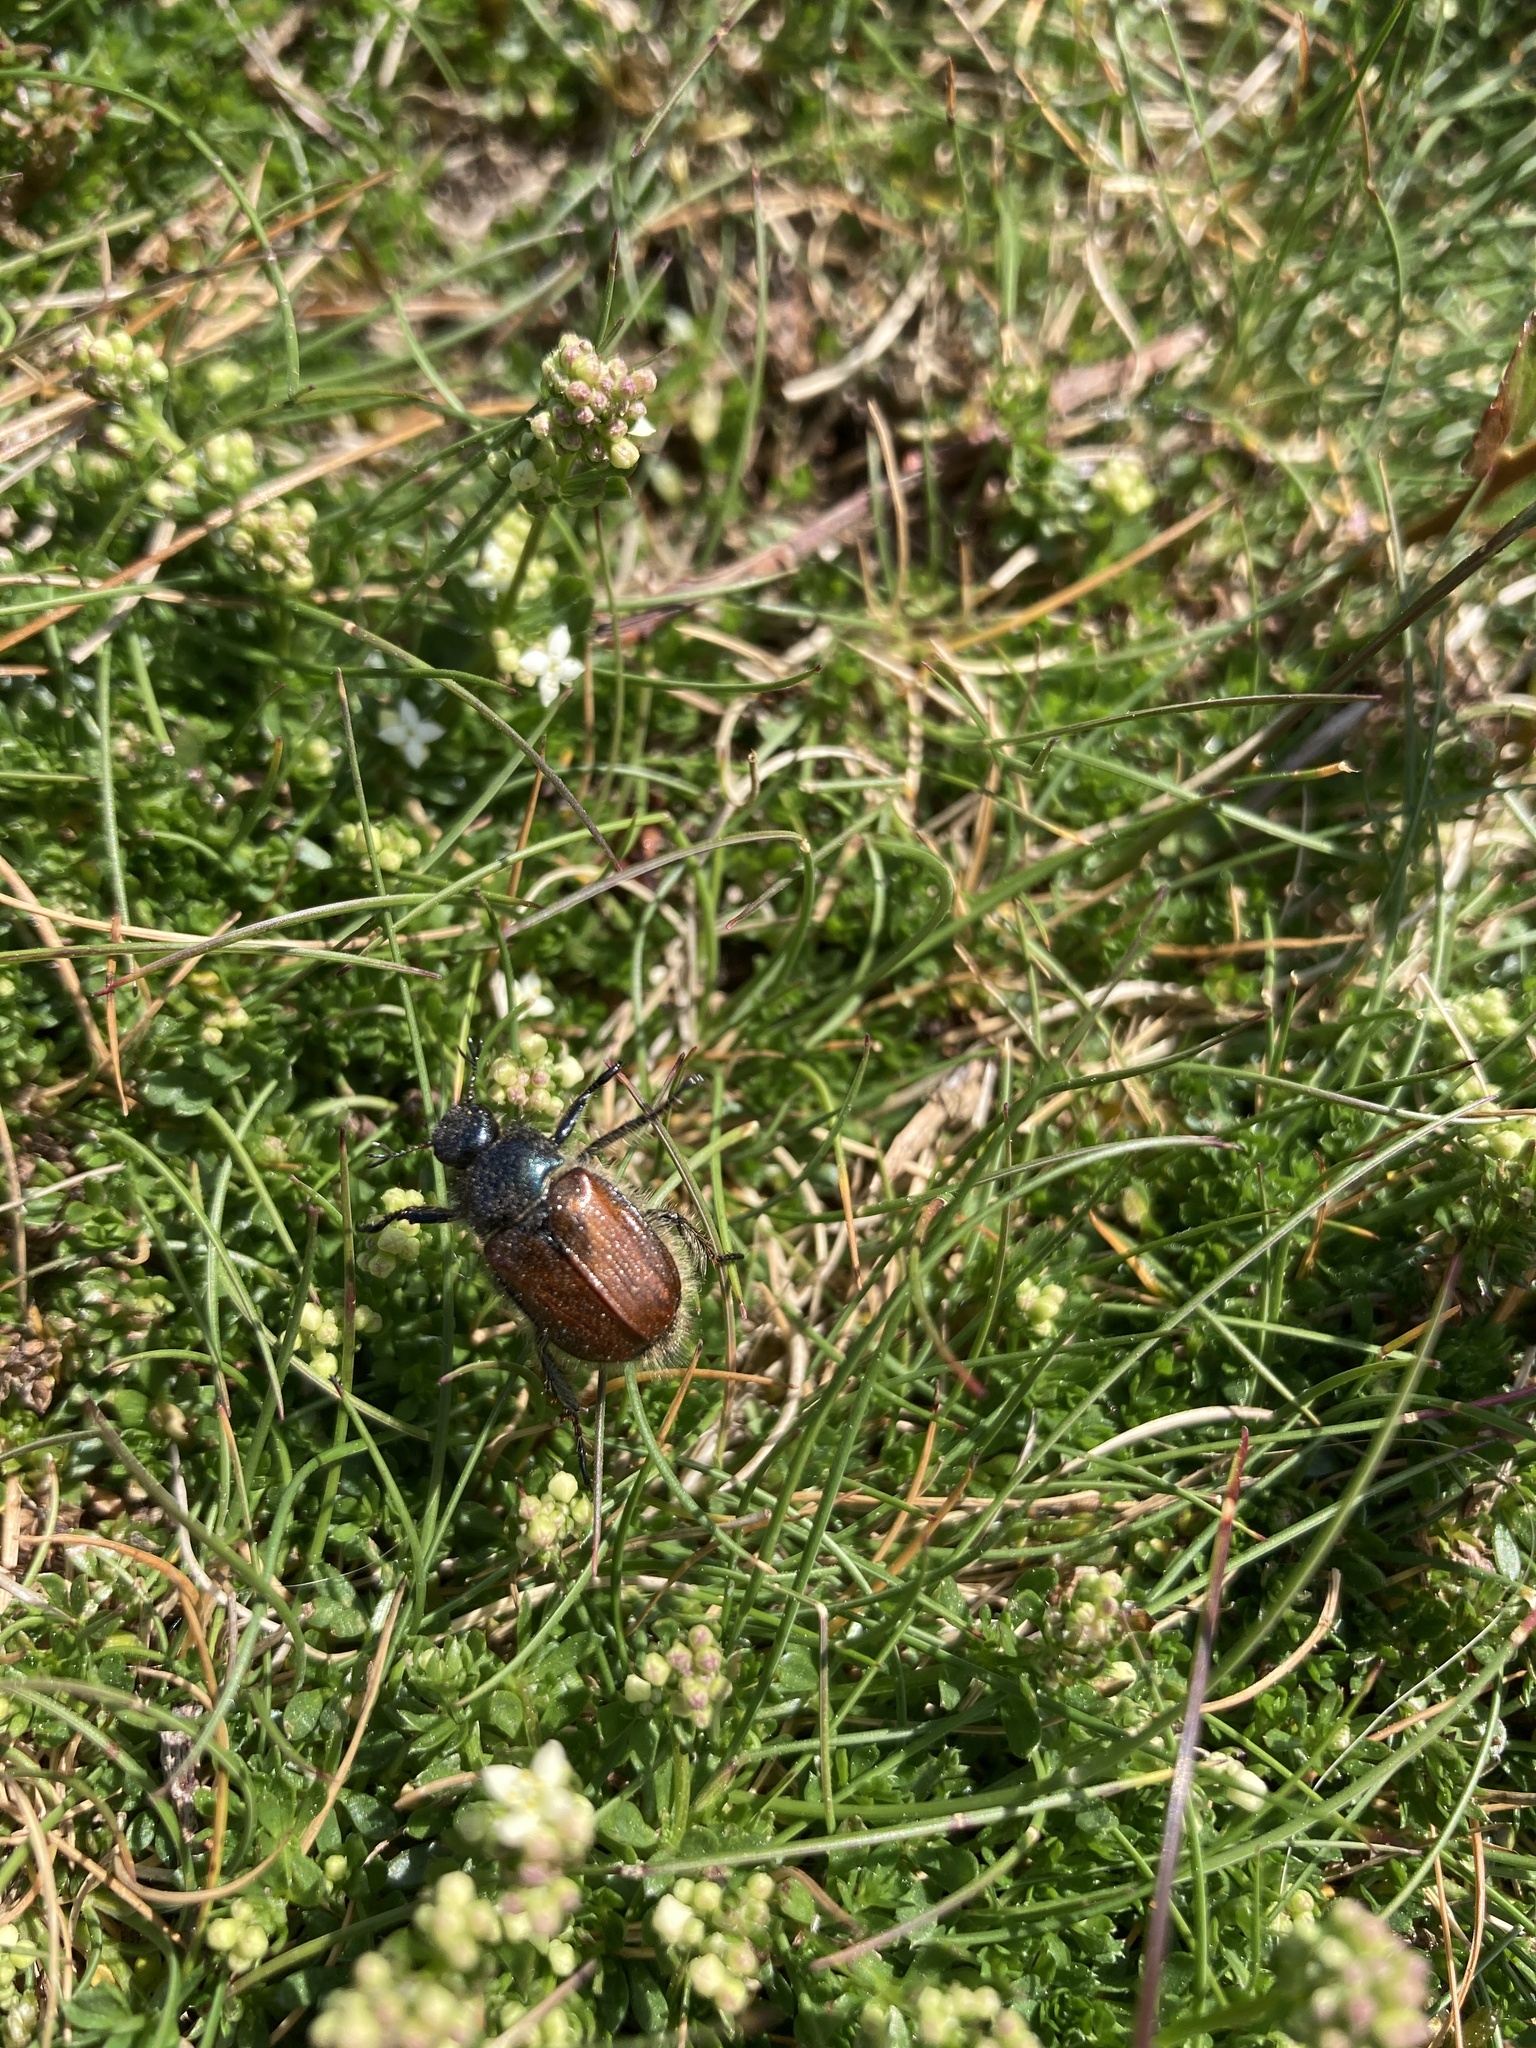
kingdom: Animalia
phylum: Arthropoda
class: Insecta
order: Coleoptera
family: Scarabaeidae
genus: Phyllopertha
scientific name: Phyllopertha horticola
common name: Garden chafer
